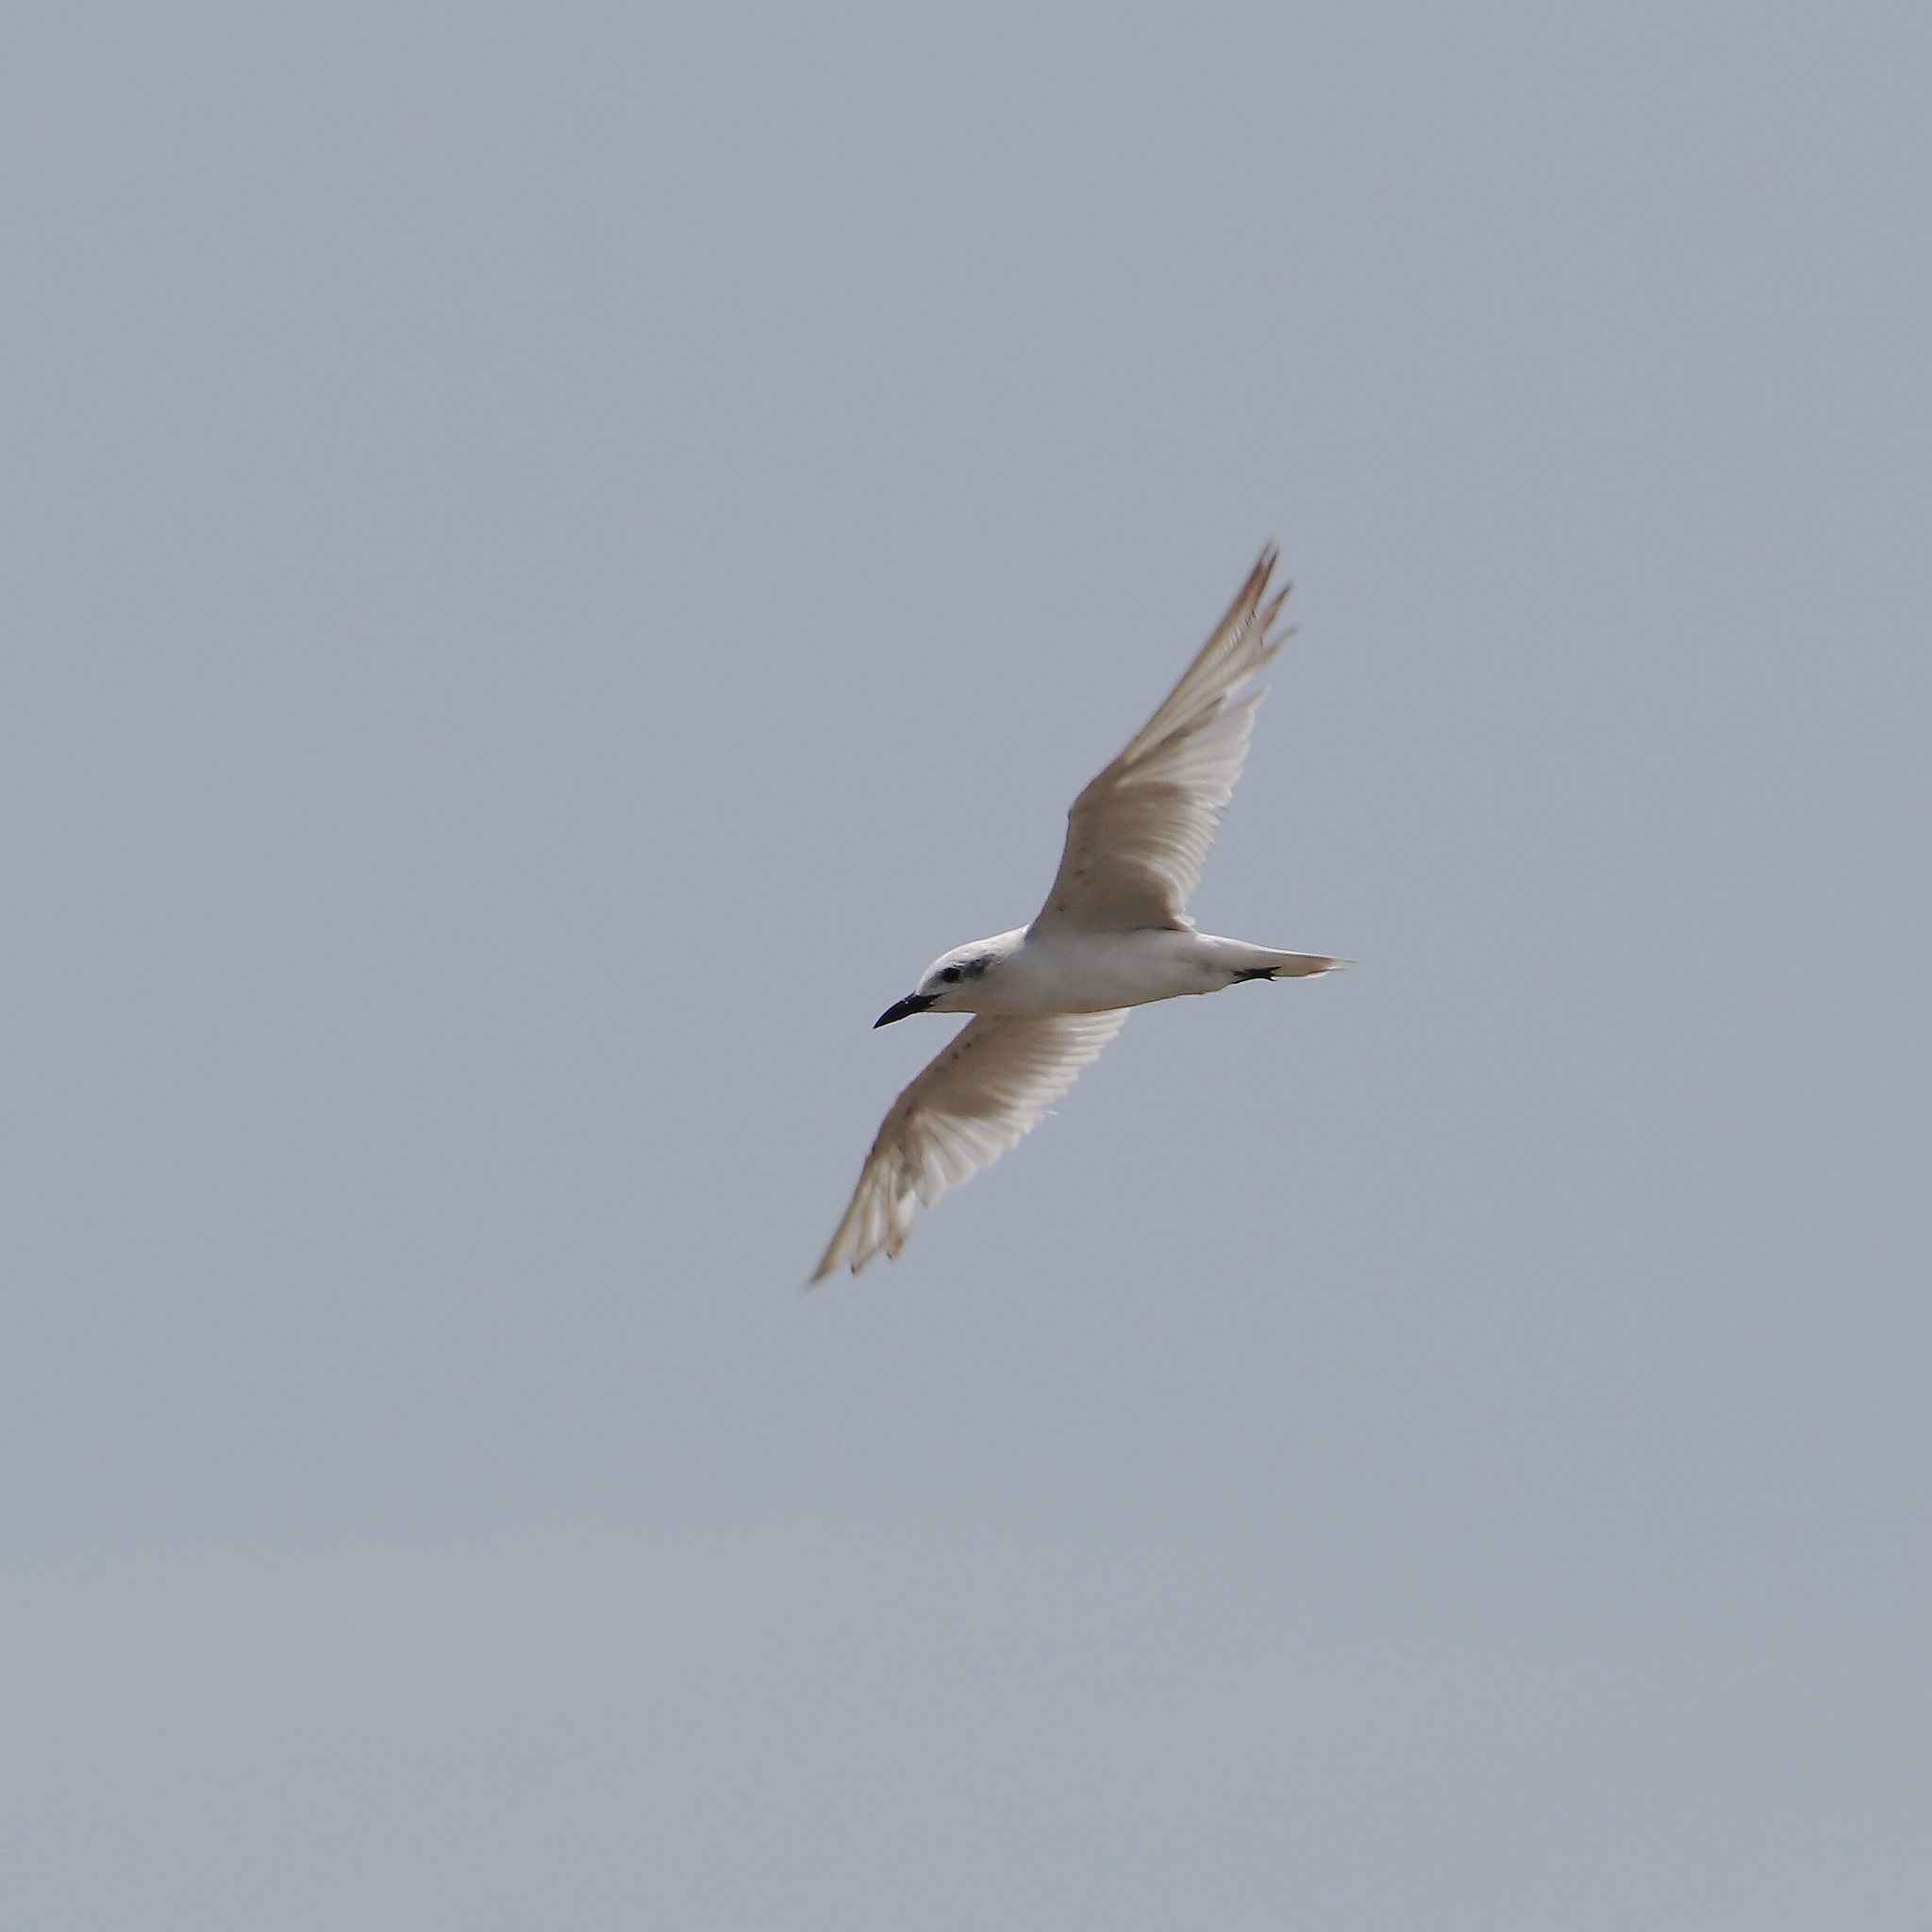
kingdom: Animalia
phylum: Chordata
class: Aves
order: Charadriiformes
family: Laridae
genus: Gelochelidon
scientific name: Gelochelidon nilotica
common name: Gull-billed tern
